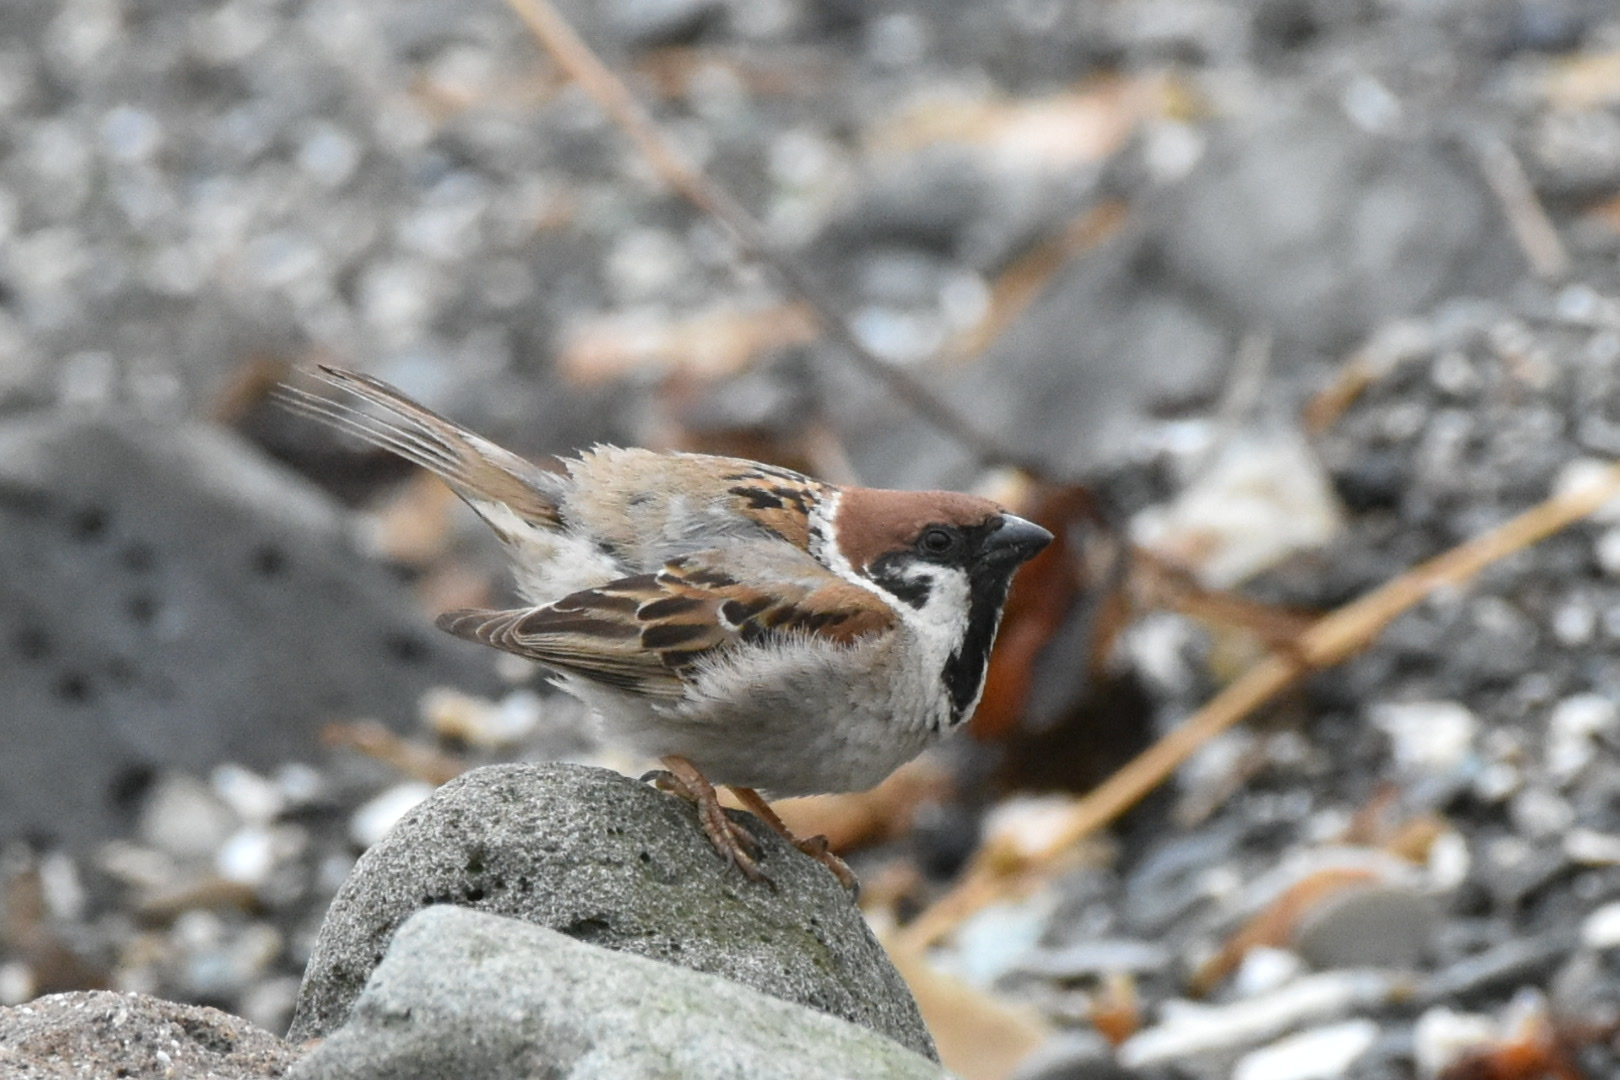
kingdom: Animalia
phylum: Chordata
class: Aves
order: Passeriformes
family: Passeridae
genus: Passer
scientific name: Passer montanus
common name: Eurasian tree sparrow
